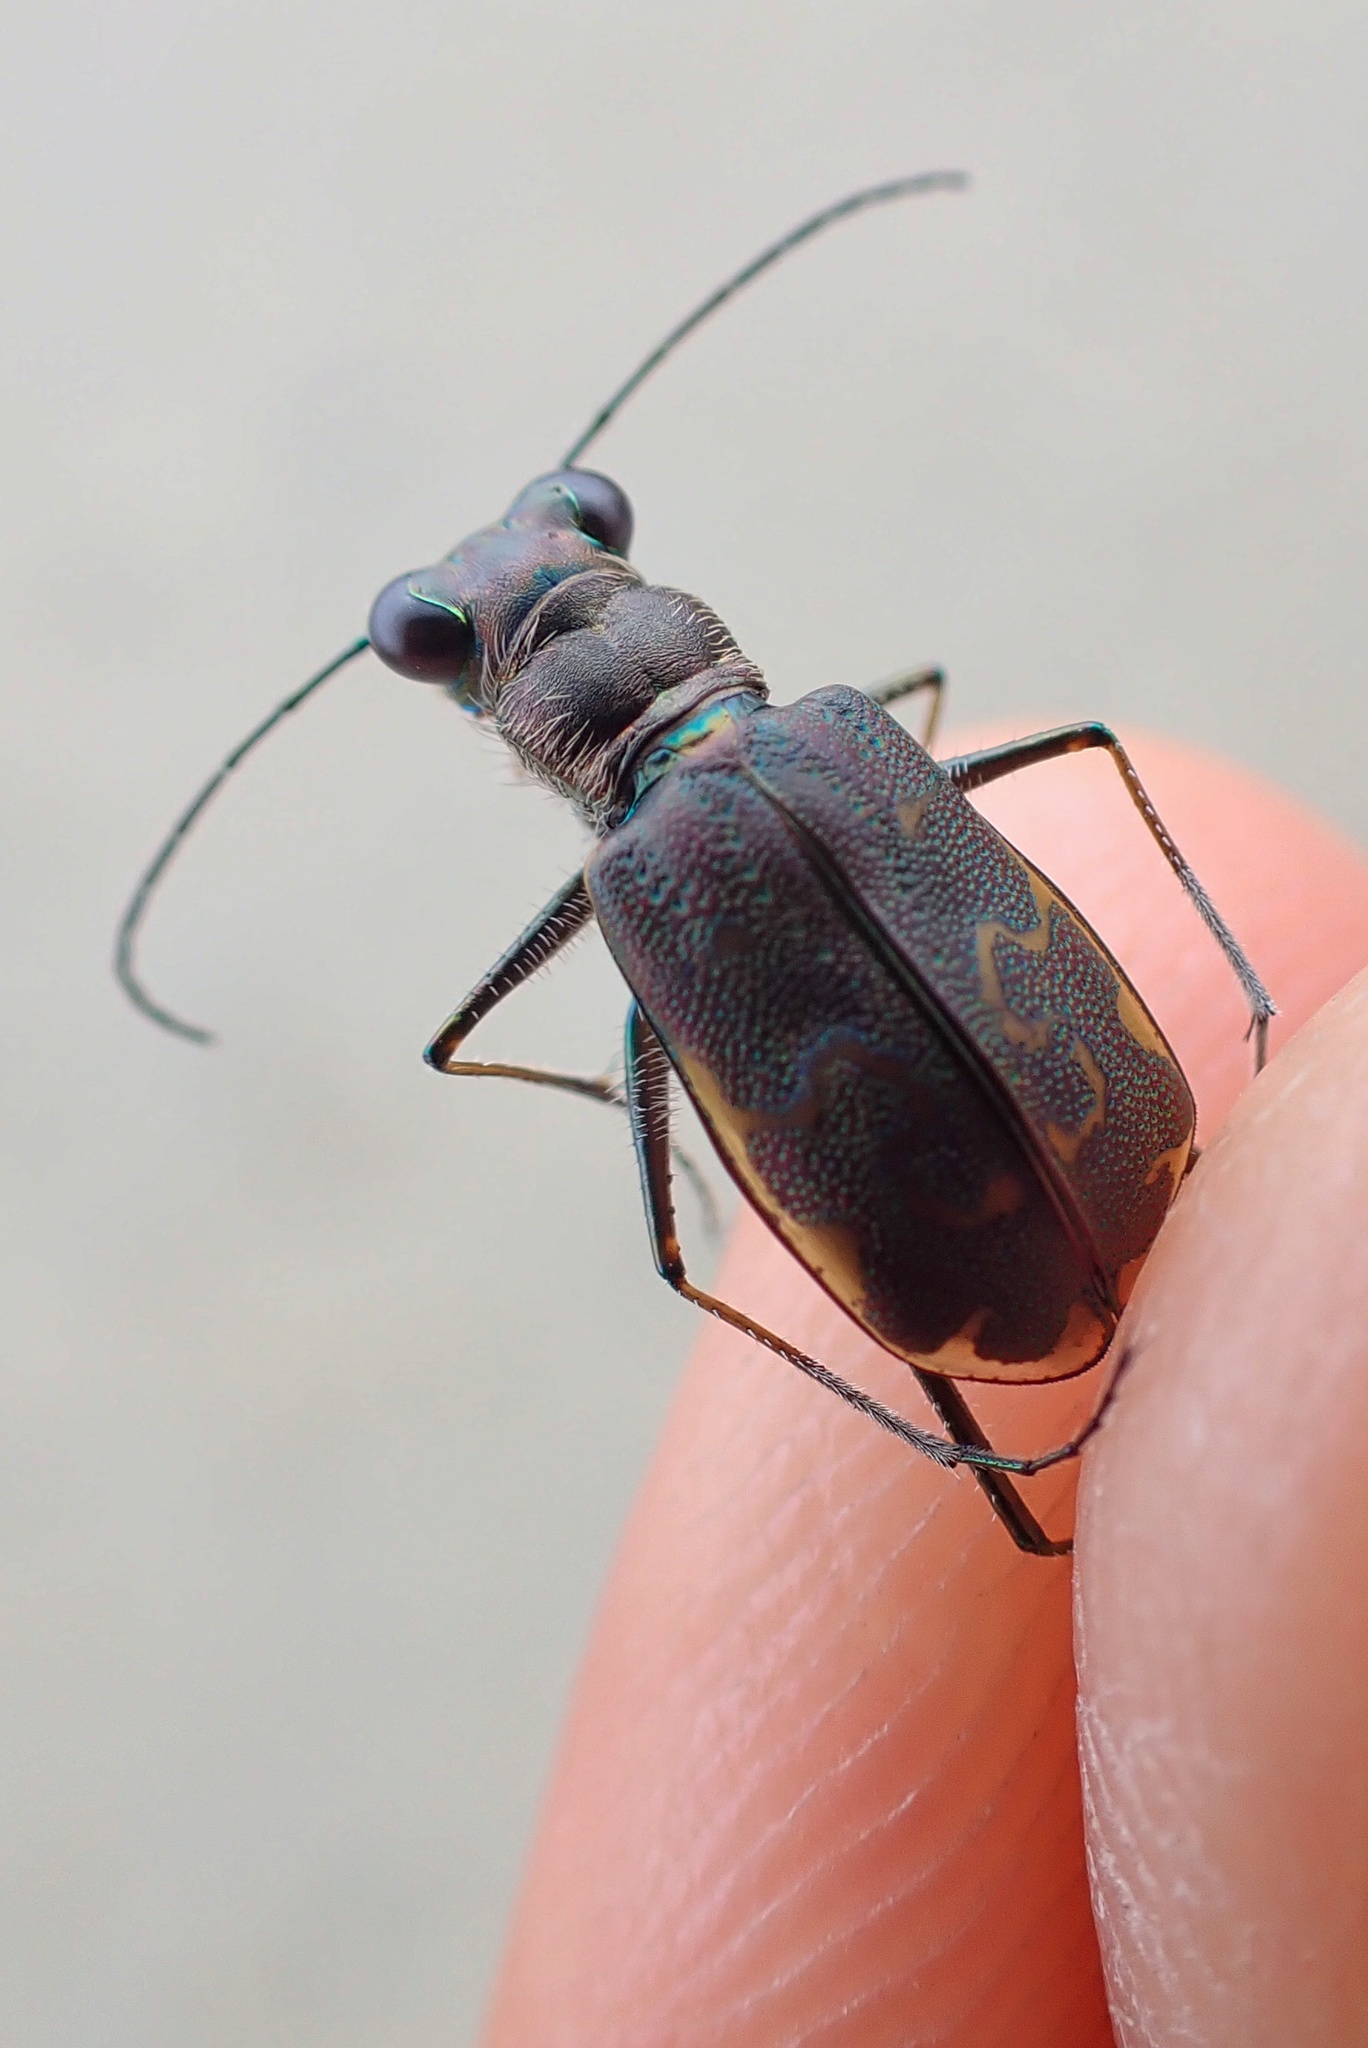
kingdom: Animalia
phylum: Arthropoda
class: Insecta
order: Coleoptera
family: Carabidae
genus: Cicindela
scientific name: Cicindela trifasciata
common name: Mudflat tiger beetle
